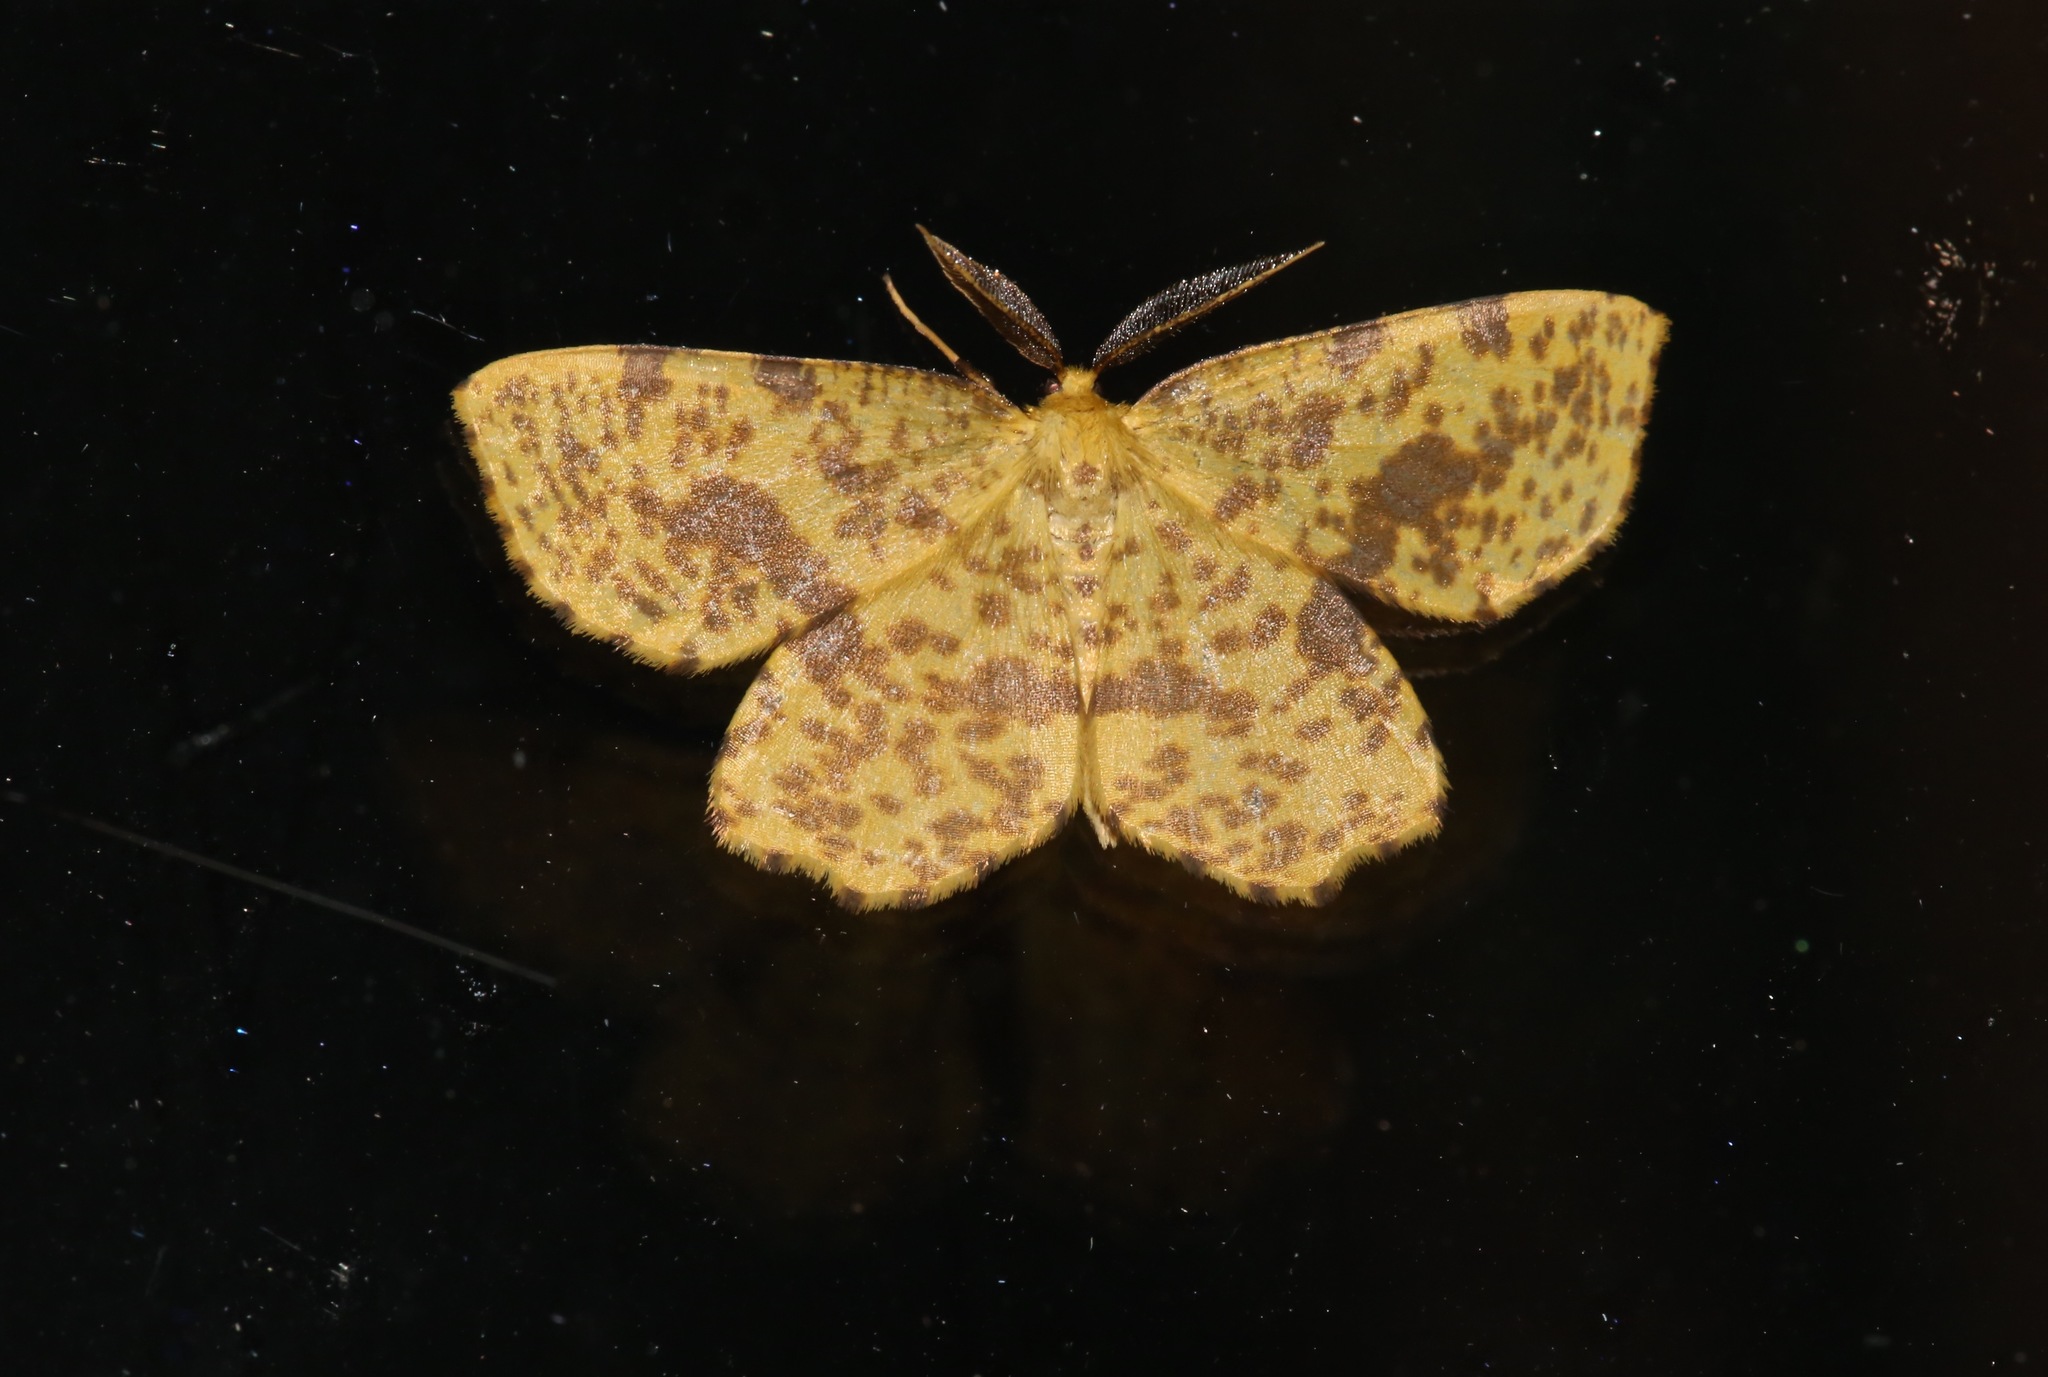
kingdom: Animalia
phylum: Arthropoda
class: Insecta
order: Lepidoptera
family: Geometridae
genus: Xanthotype
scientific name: Xanthotype
